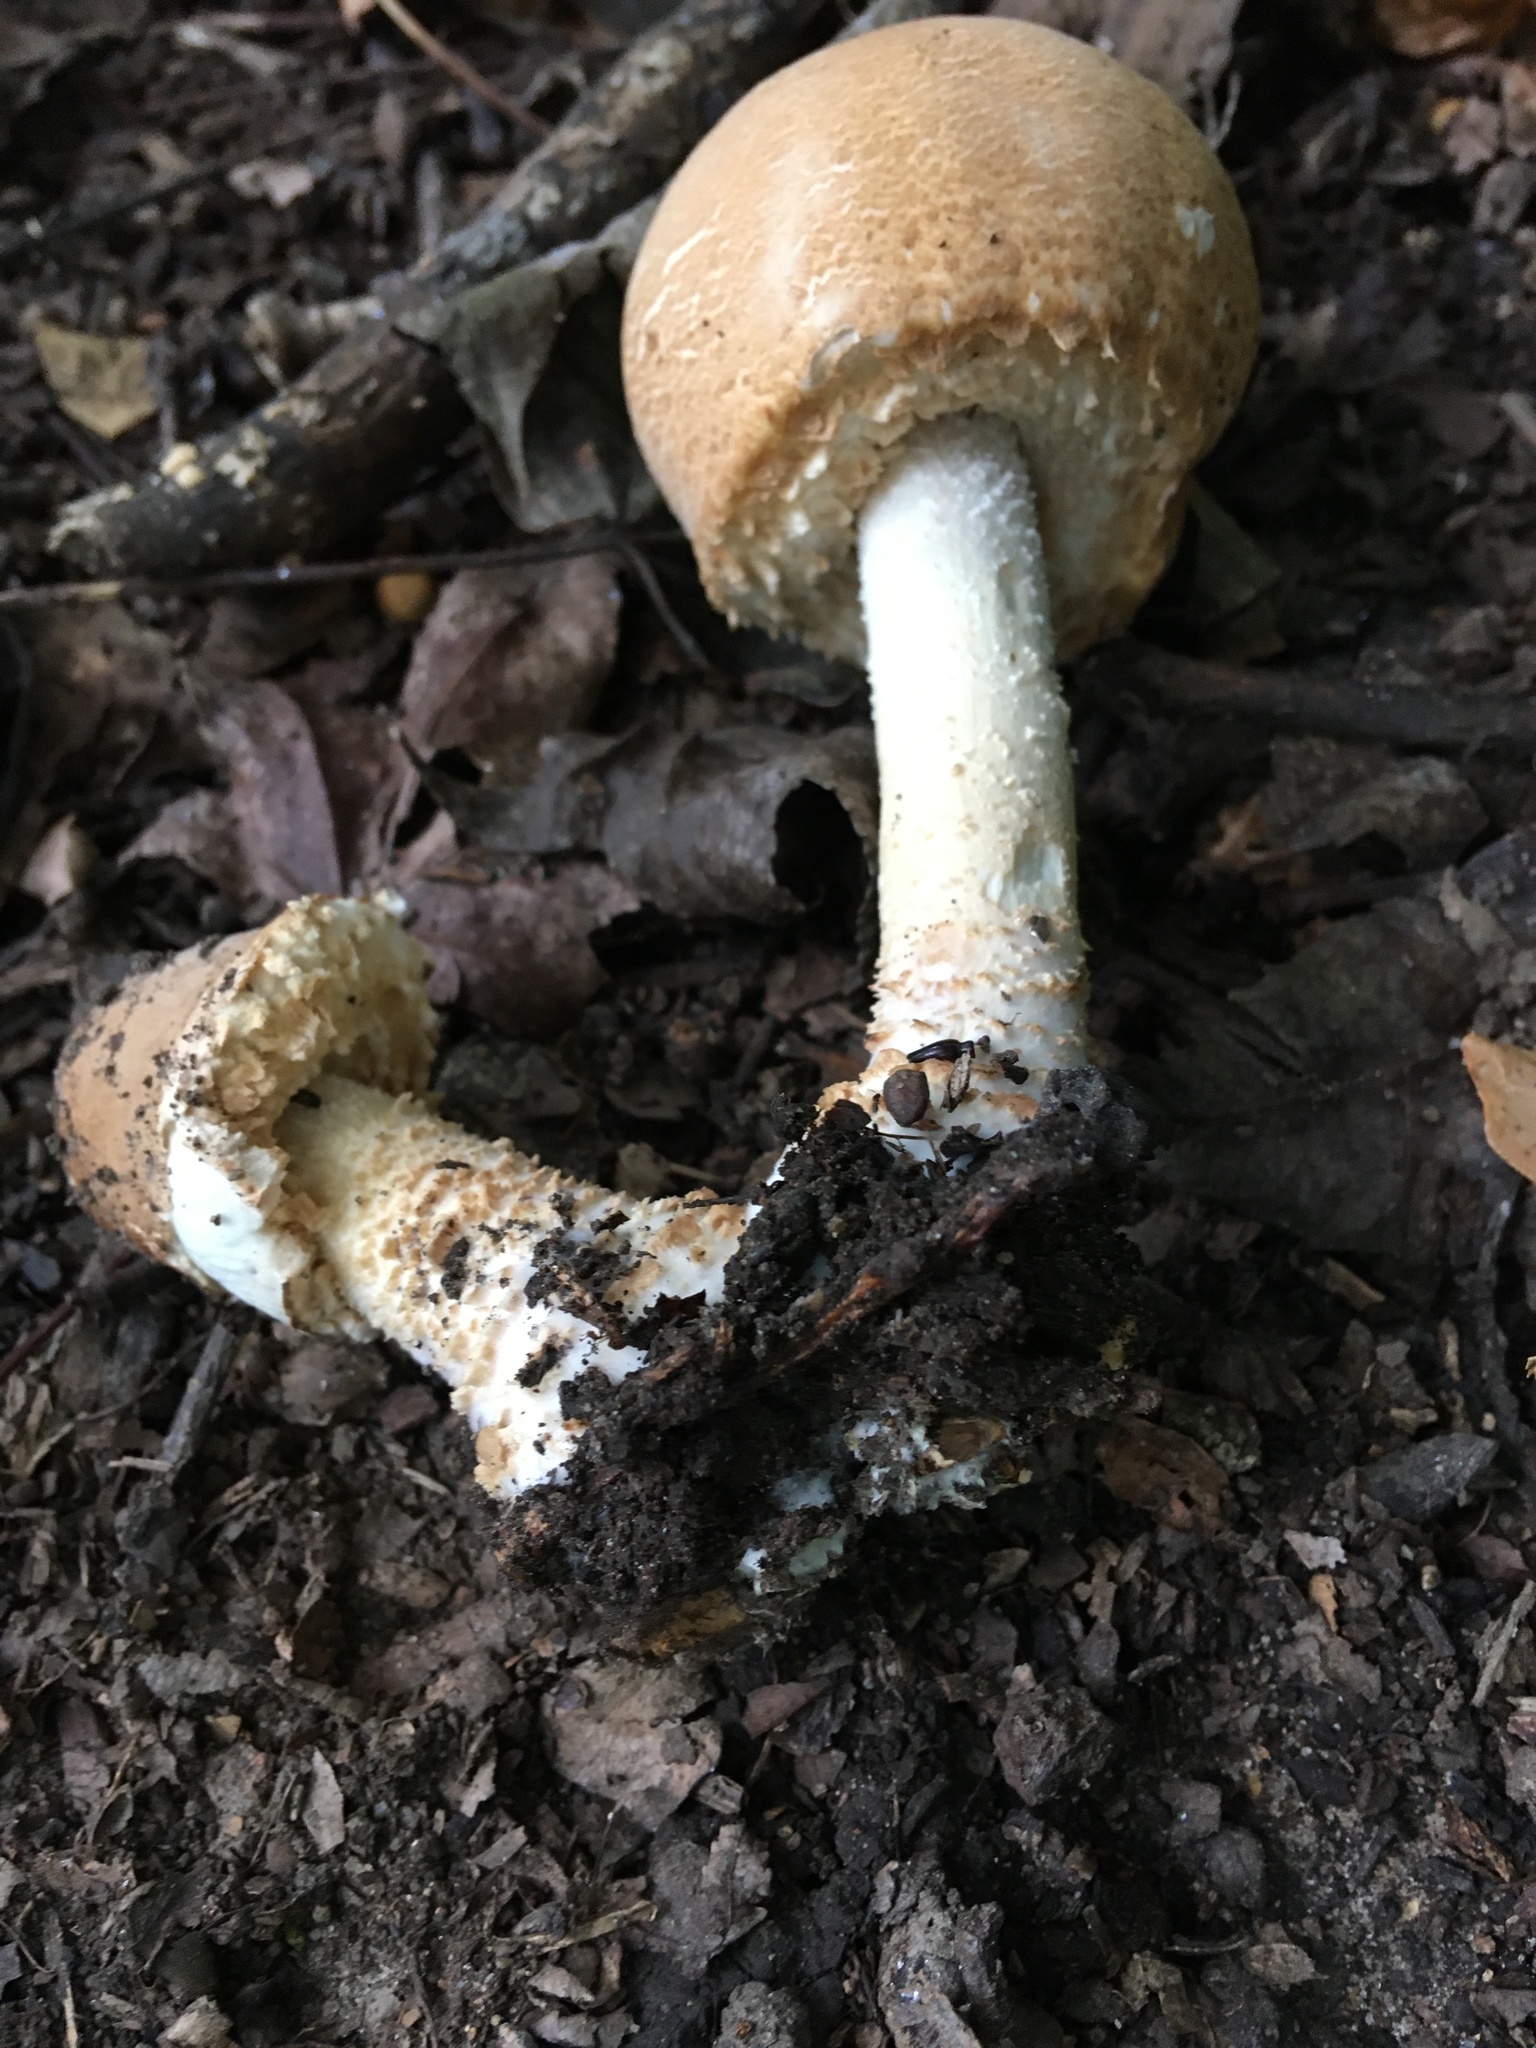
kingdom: Fungi
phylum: Basidiomycota
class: Agaricomycetes
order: Agaricales
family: Agaricaceae
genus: Agaricus
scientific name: Agaricus nanaugustus
